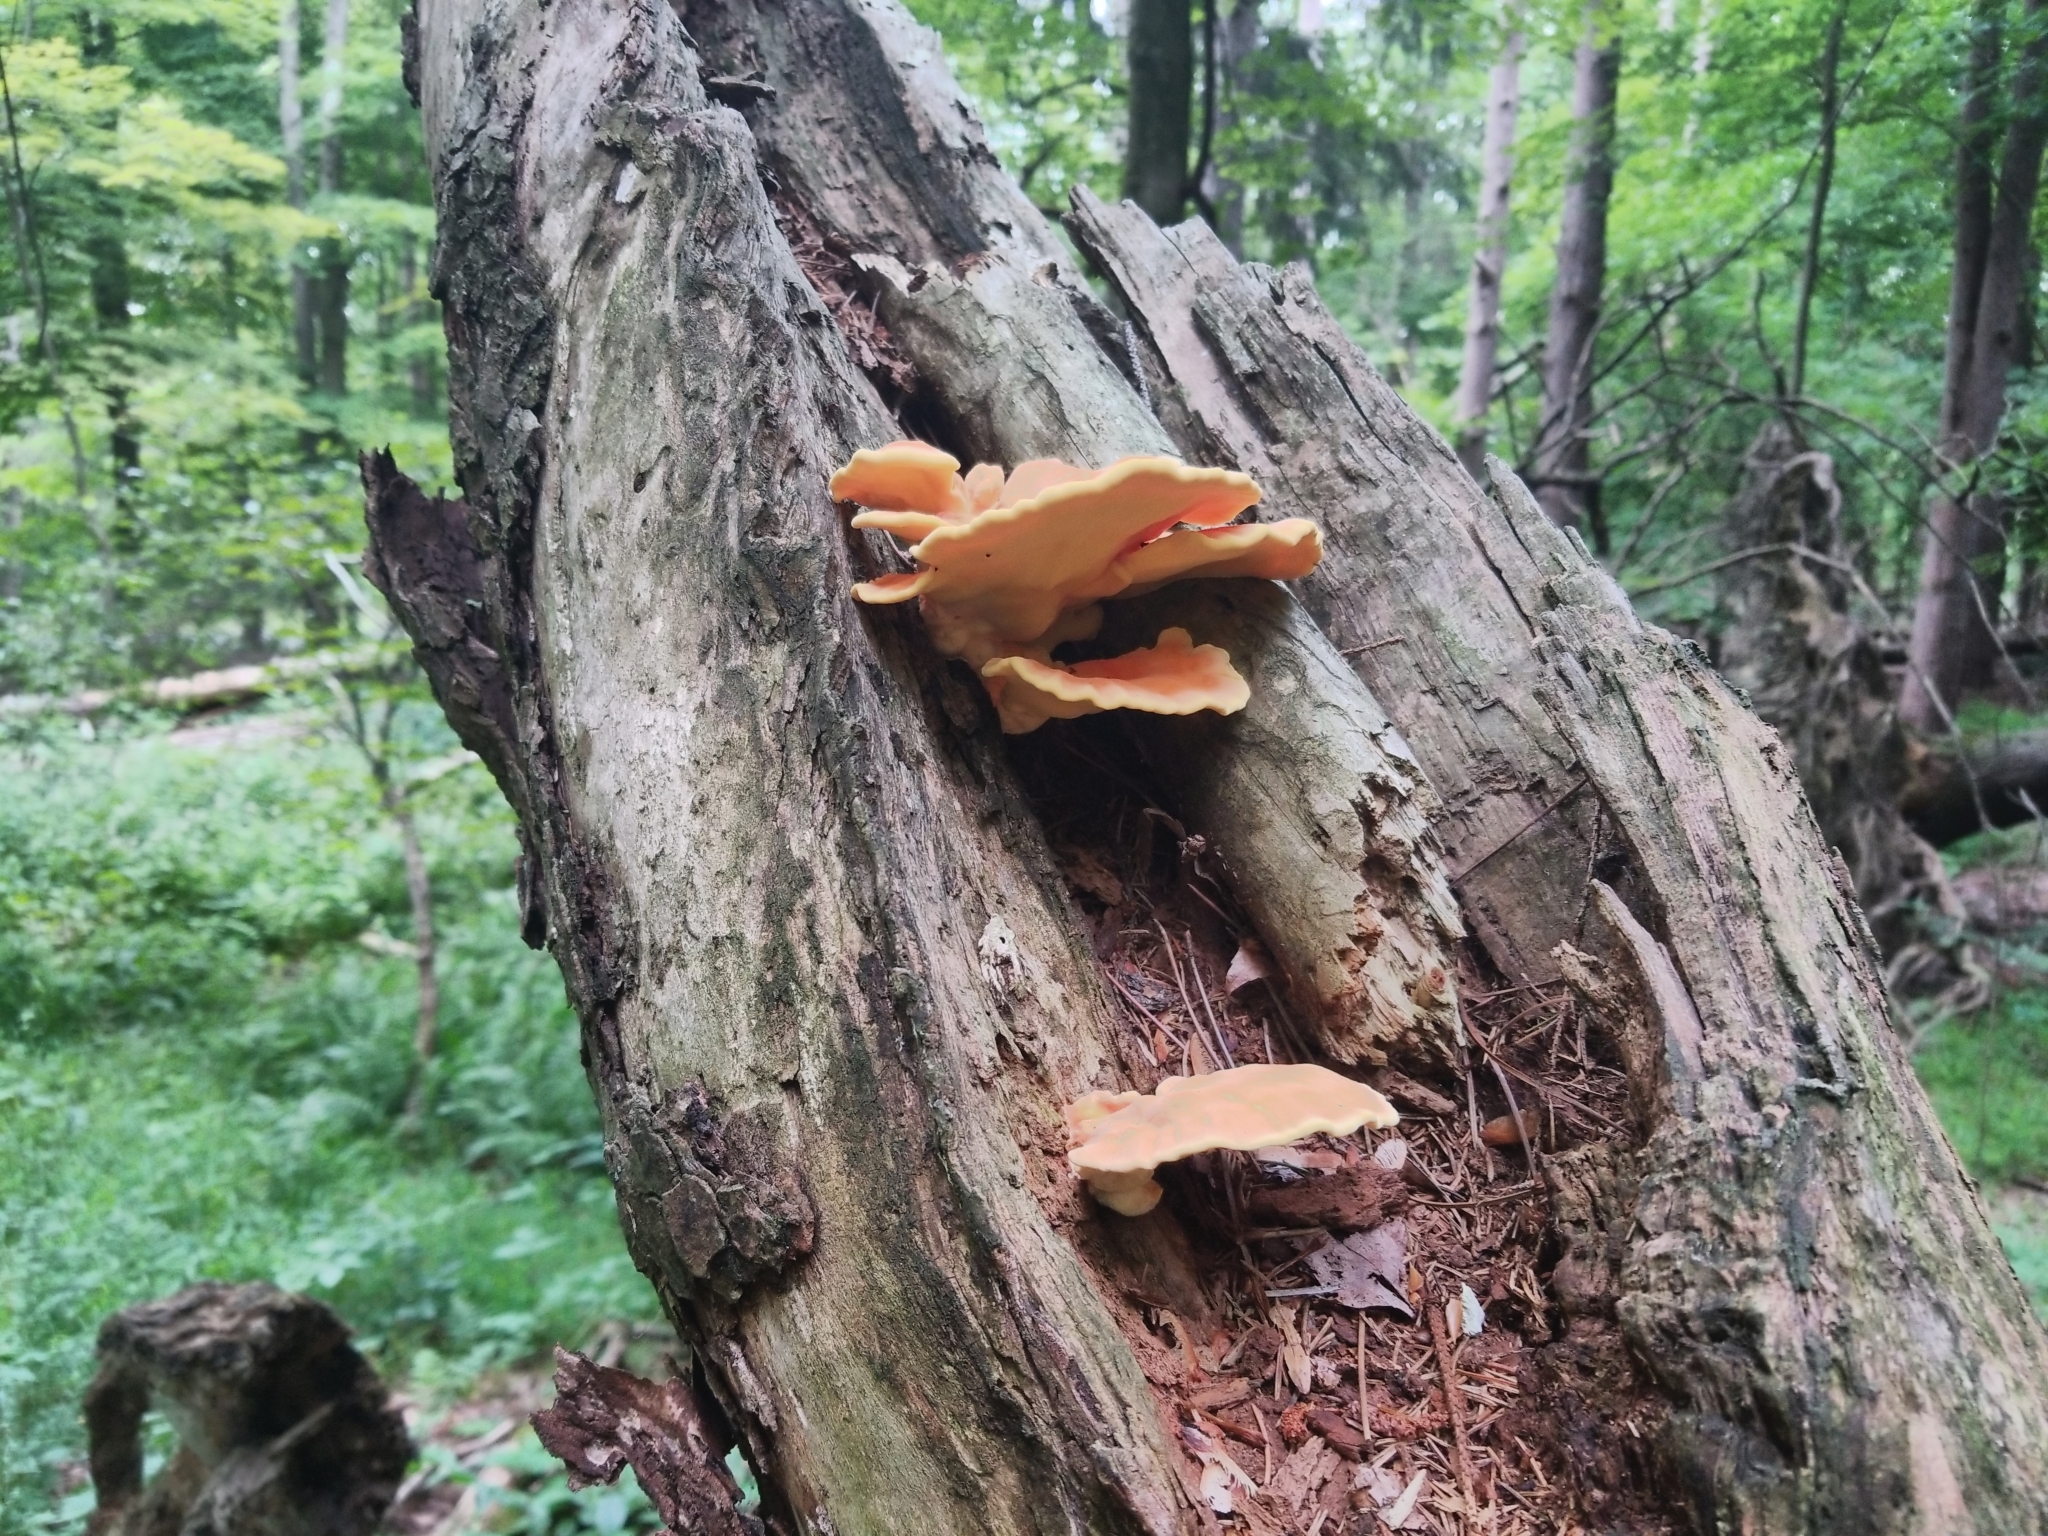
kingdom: Fungi
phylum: Basidiomycota
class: Agaricomycetes
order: Polyporales
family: Laetiporaceae
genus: Laetiporus
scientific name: Laetiporus sulphureus
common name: Chicken of the woods
